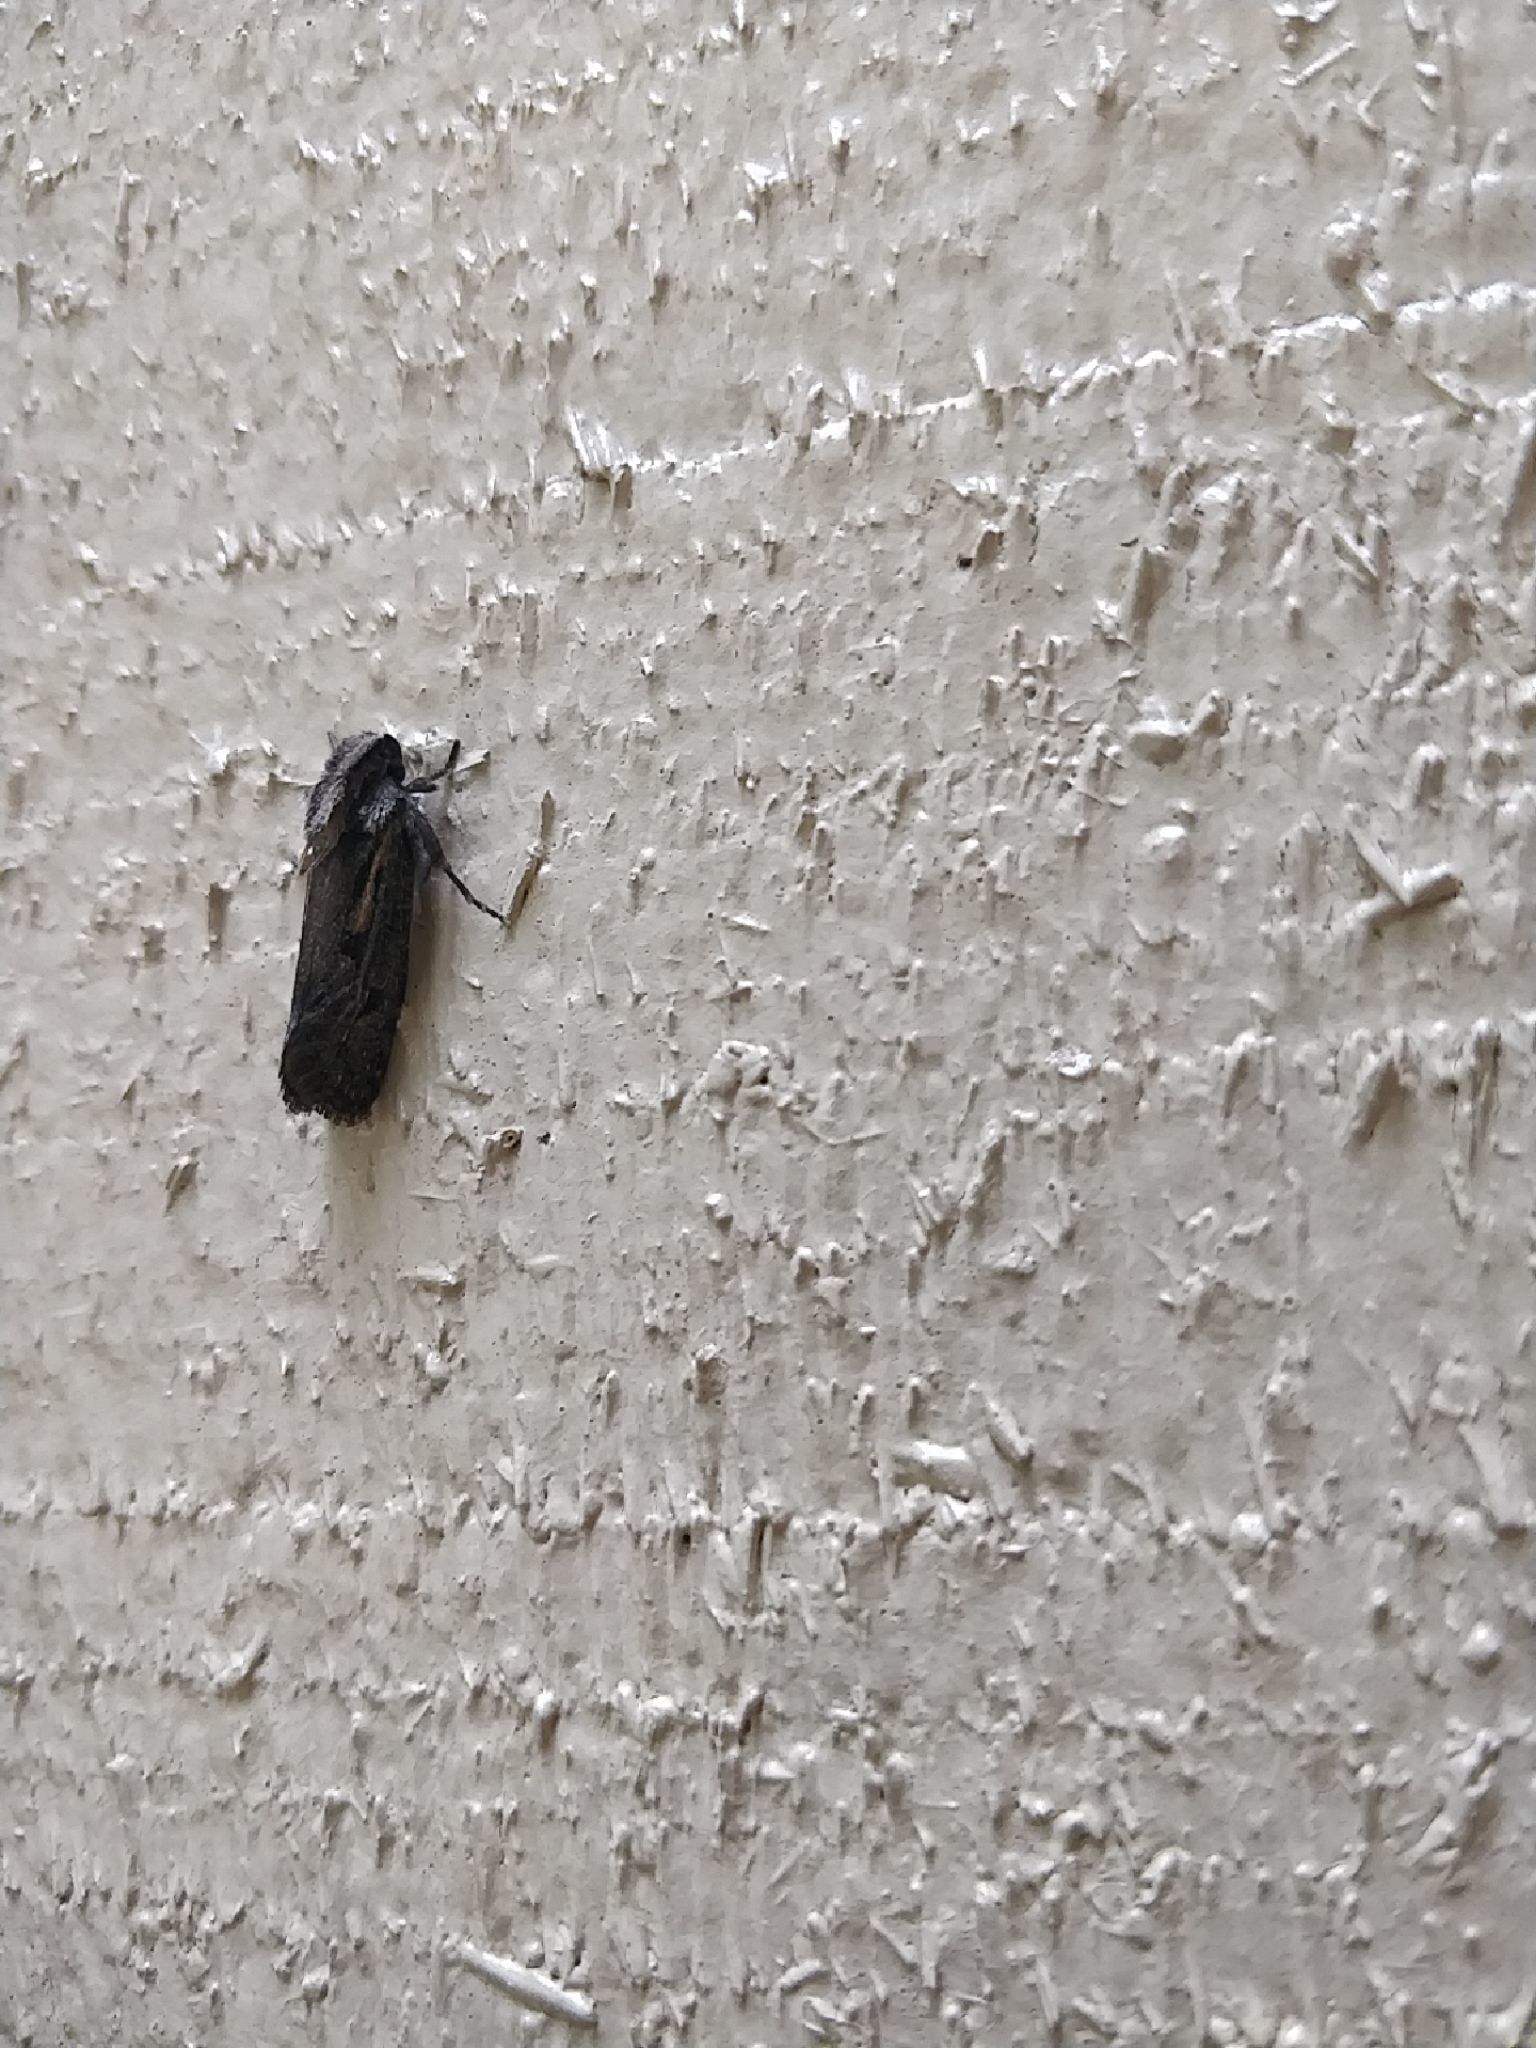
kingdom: Animalia
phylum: Arthropoda
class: Insecta
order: Lepidoptera
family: Tineidae
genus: Acrolophus
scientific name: Acrolophus popeanella
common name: Clemens' grass tubeworm moth
